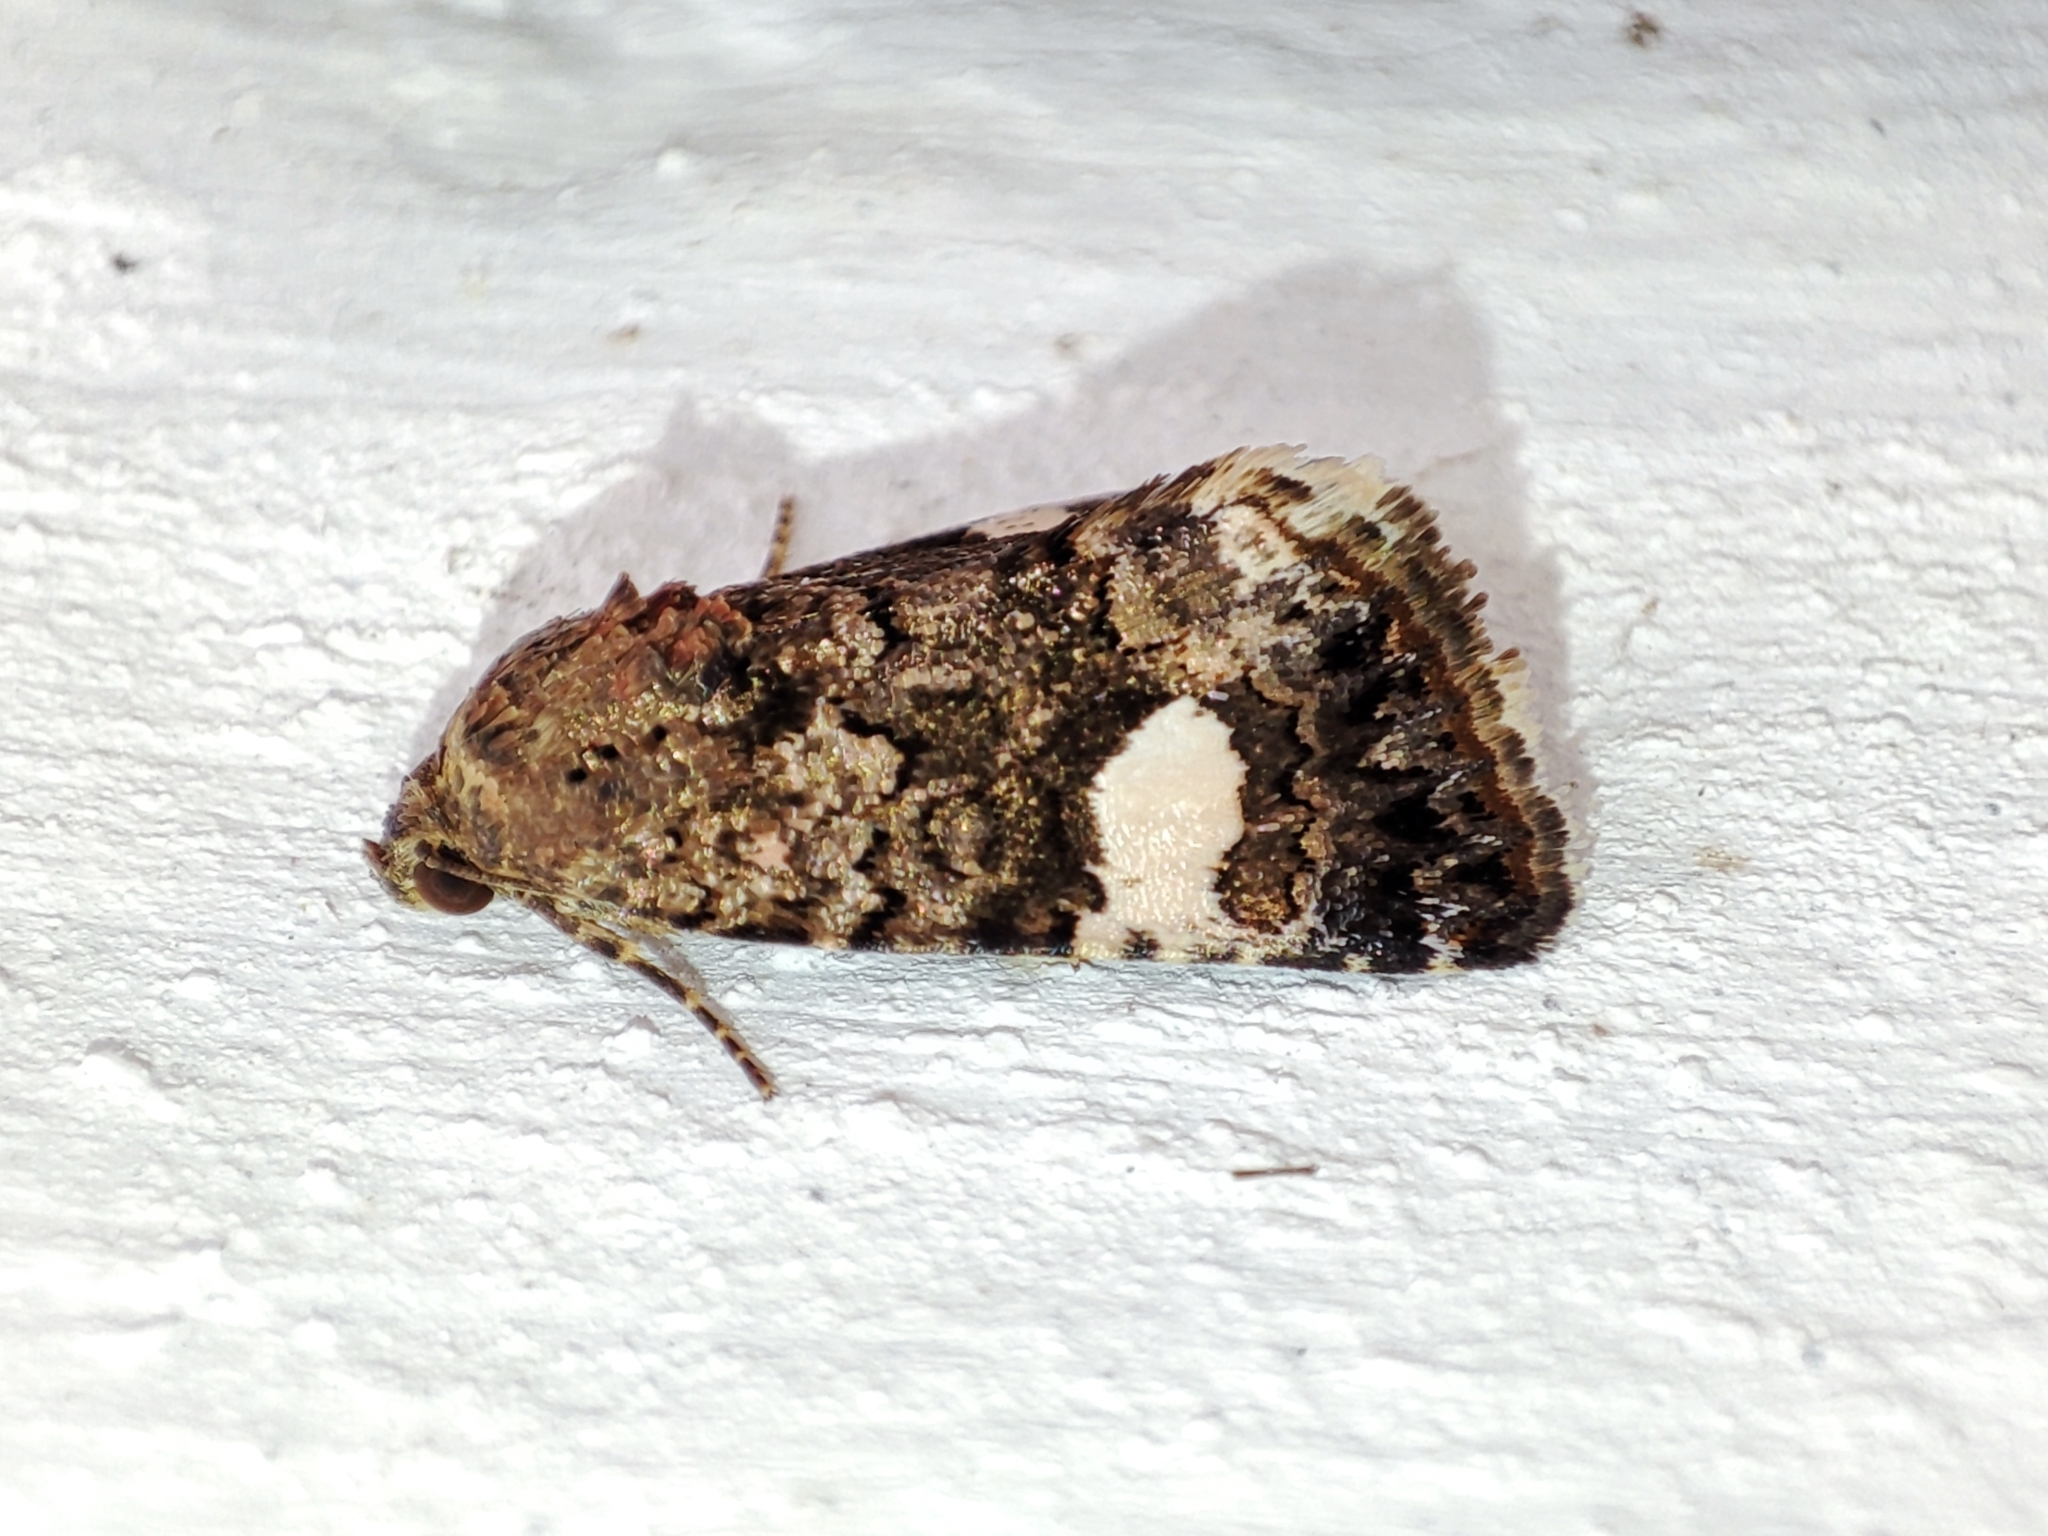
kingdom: Animalia
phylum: Arthropoda
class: Insecta
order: Lepidoptera
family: Erebidae
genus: Tyta
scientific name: Tyta luctuosa
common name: Four-spotted
